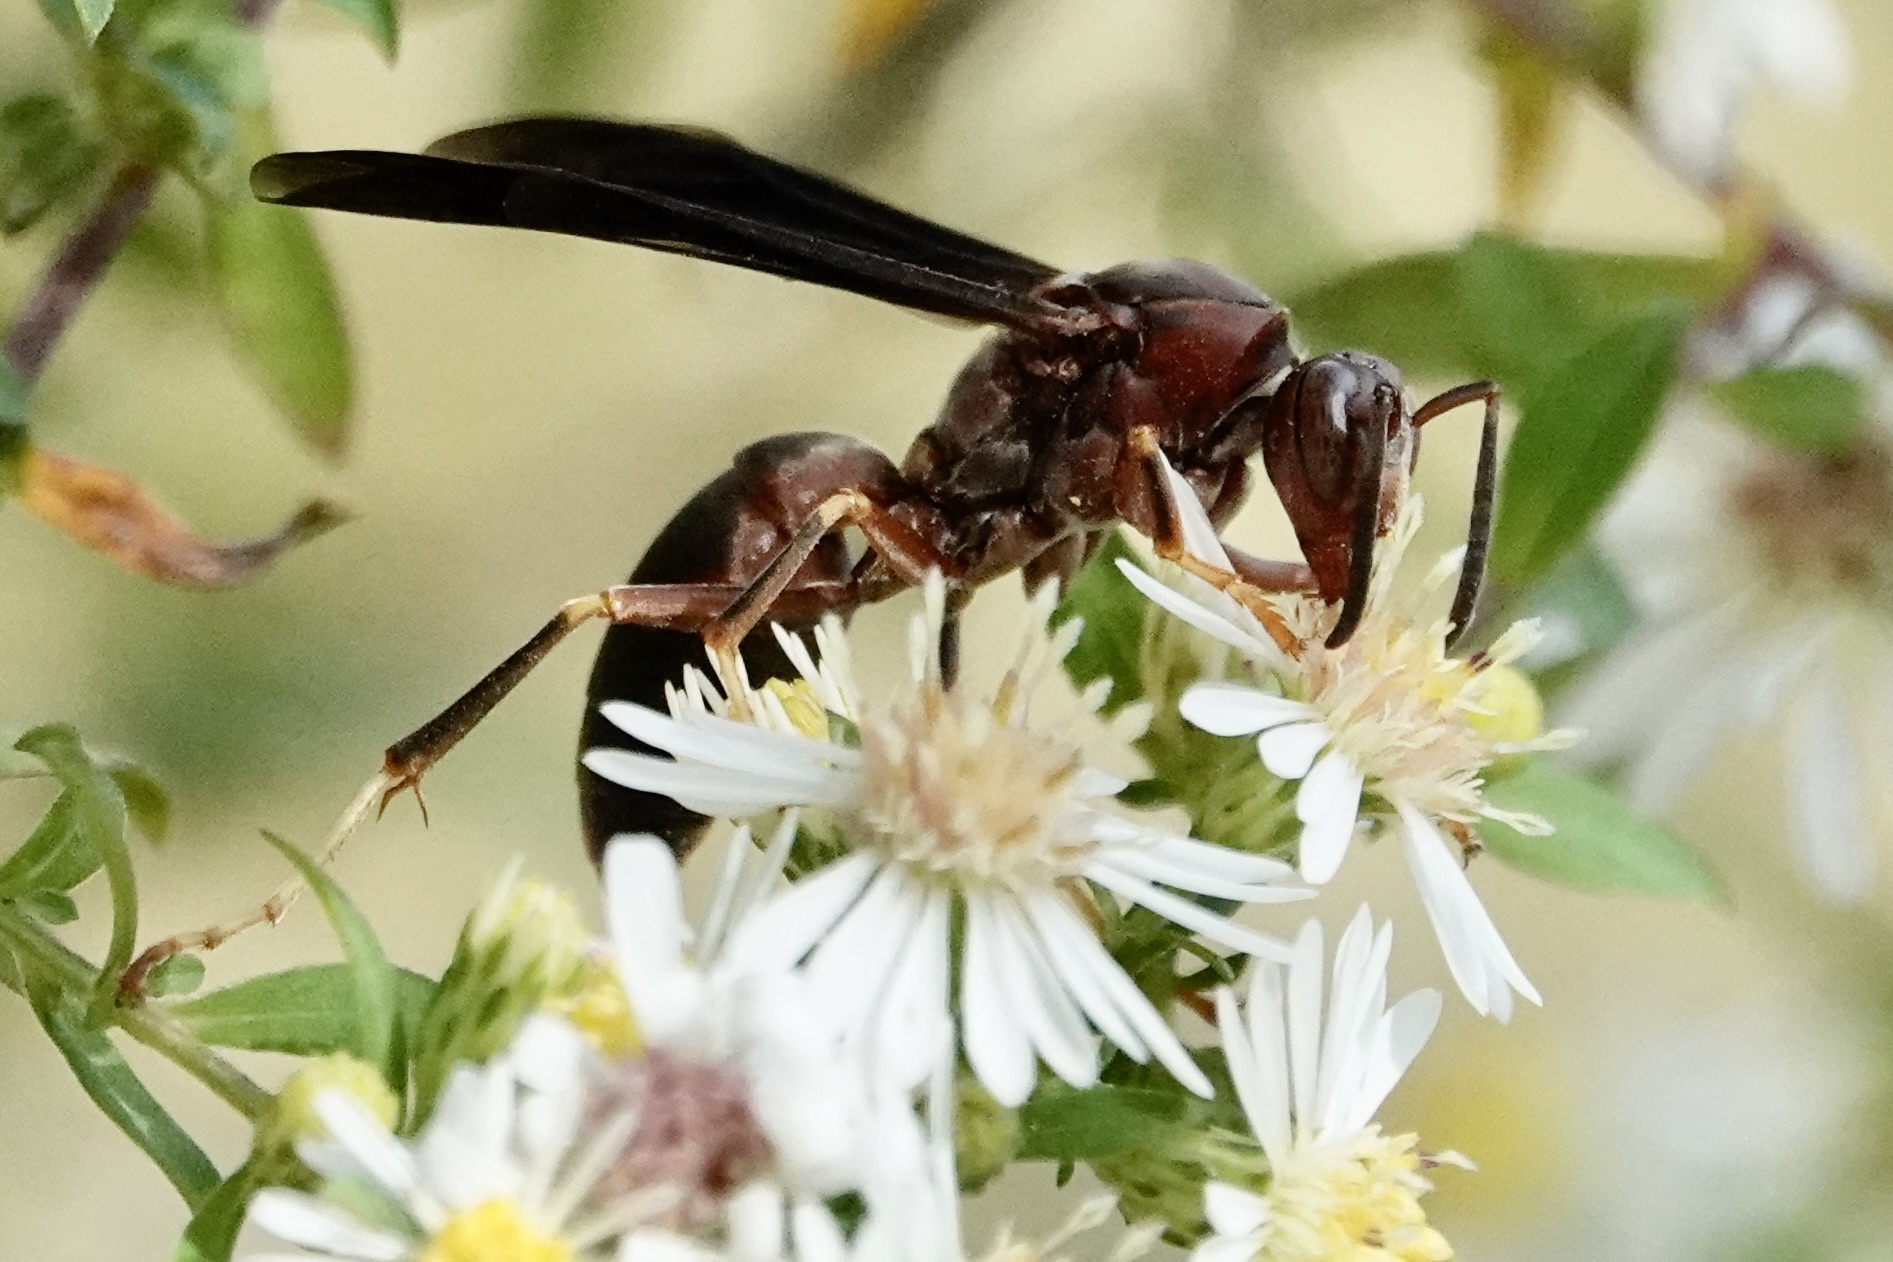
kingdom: Animalia
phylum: Arthropoda
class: Insecta
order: Hymenoptera
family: Eumenidae
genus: Polistes
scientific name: Polistes metricus
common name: Metric paper wasp
